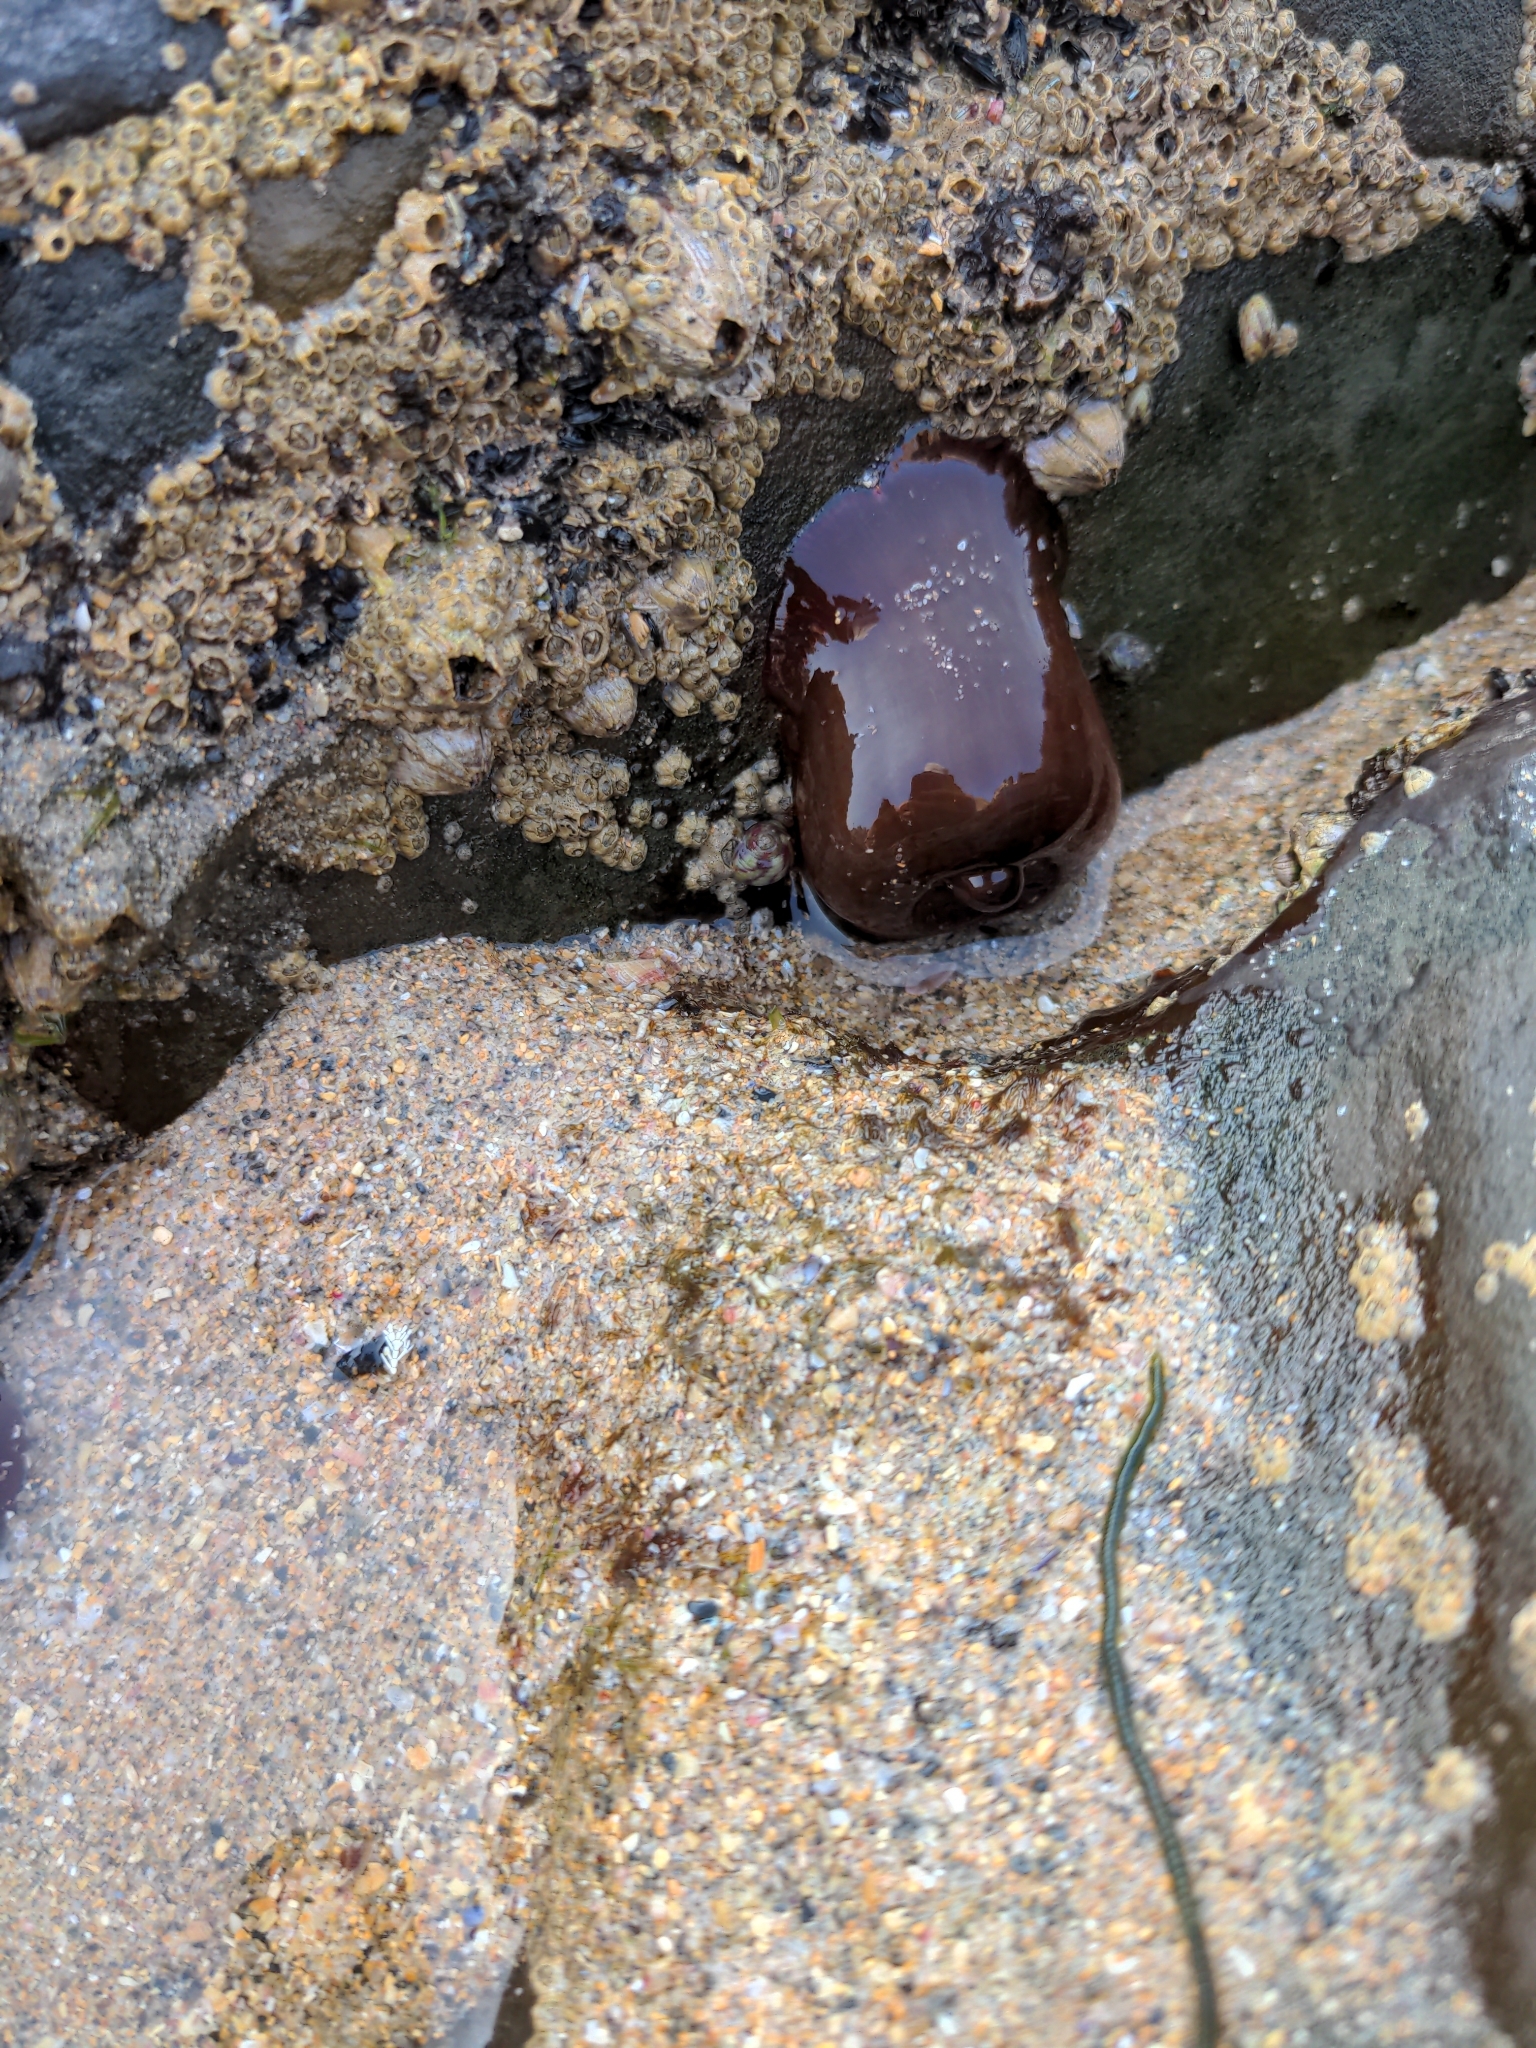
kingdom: Animalia
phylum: Cnidaria
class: Anthozoa
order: Actiniaria
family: Actiniidae
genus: Actinia
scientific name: Actinia equina
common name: Beadlet anemone
